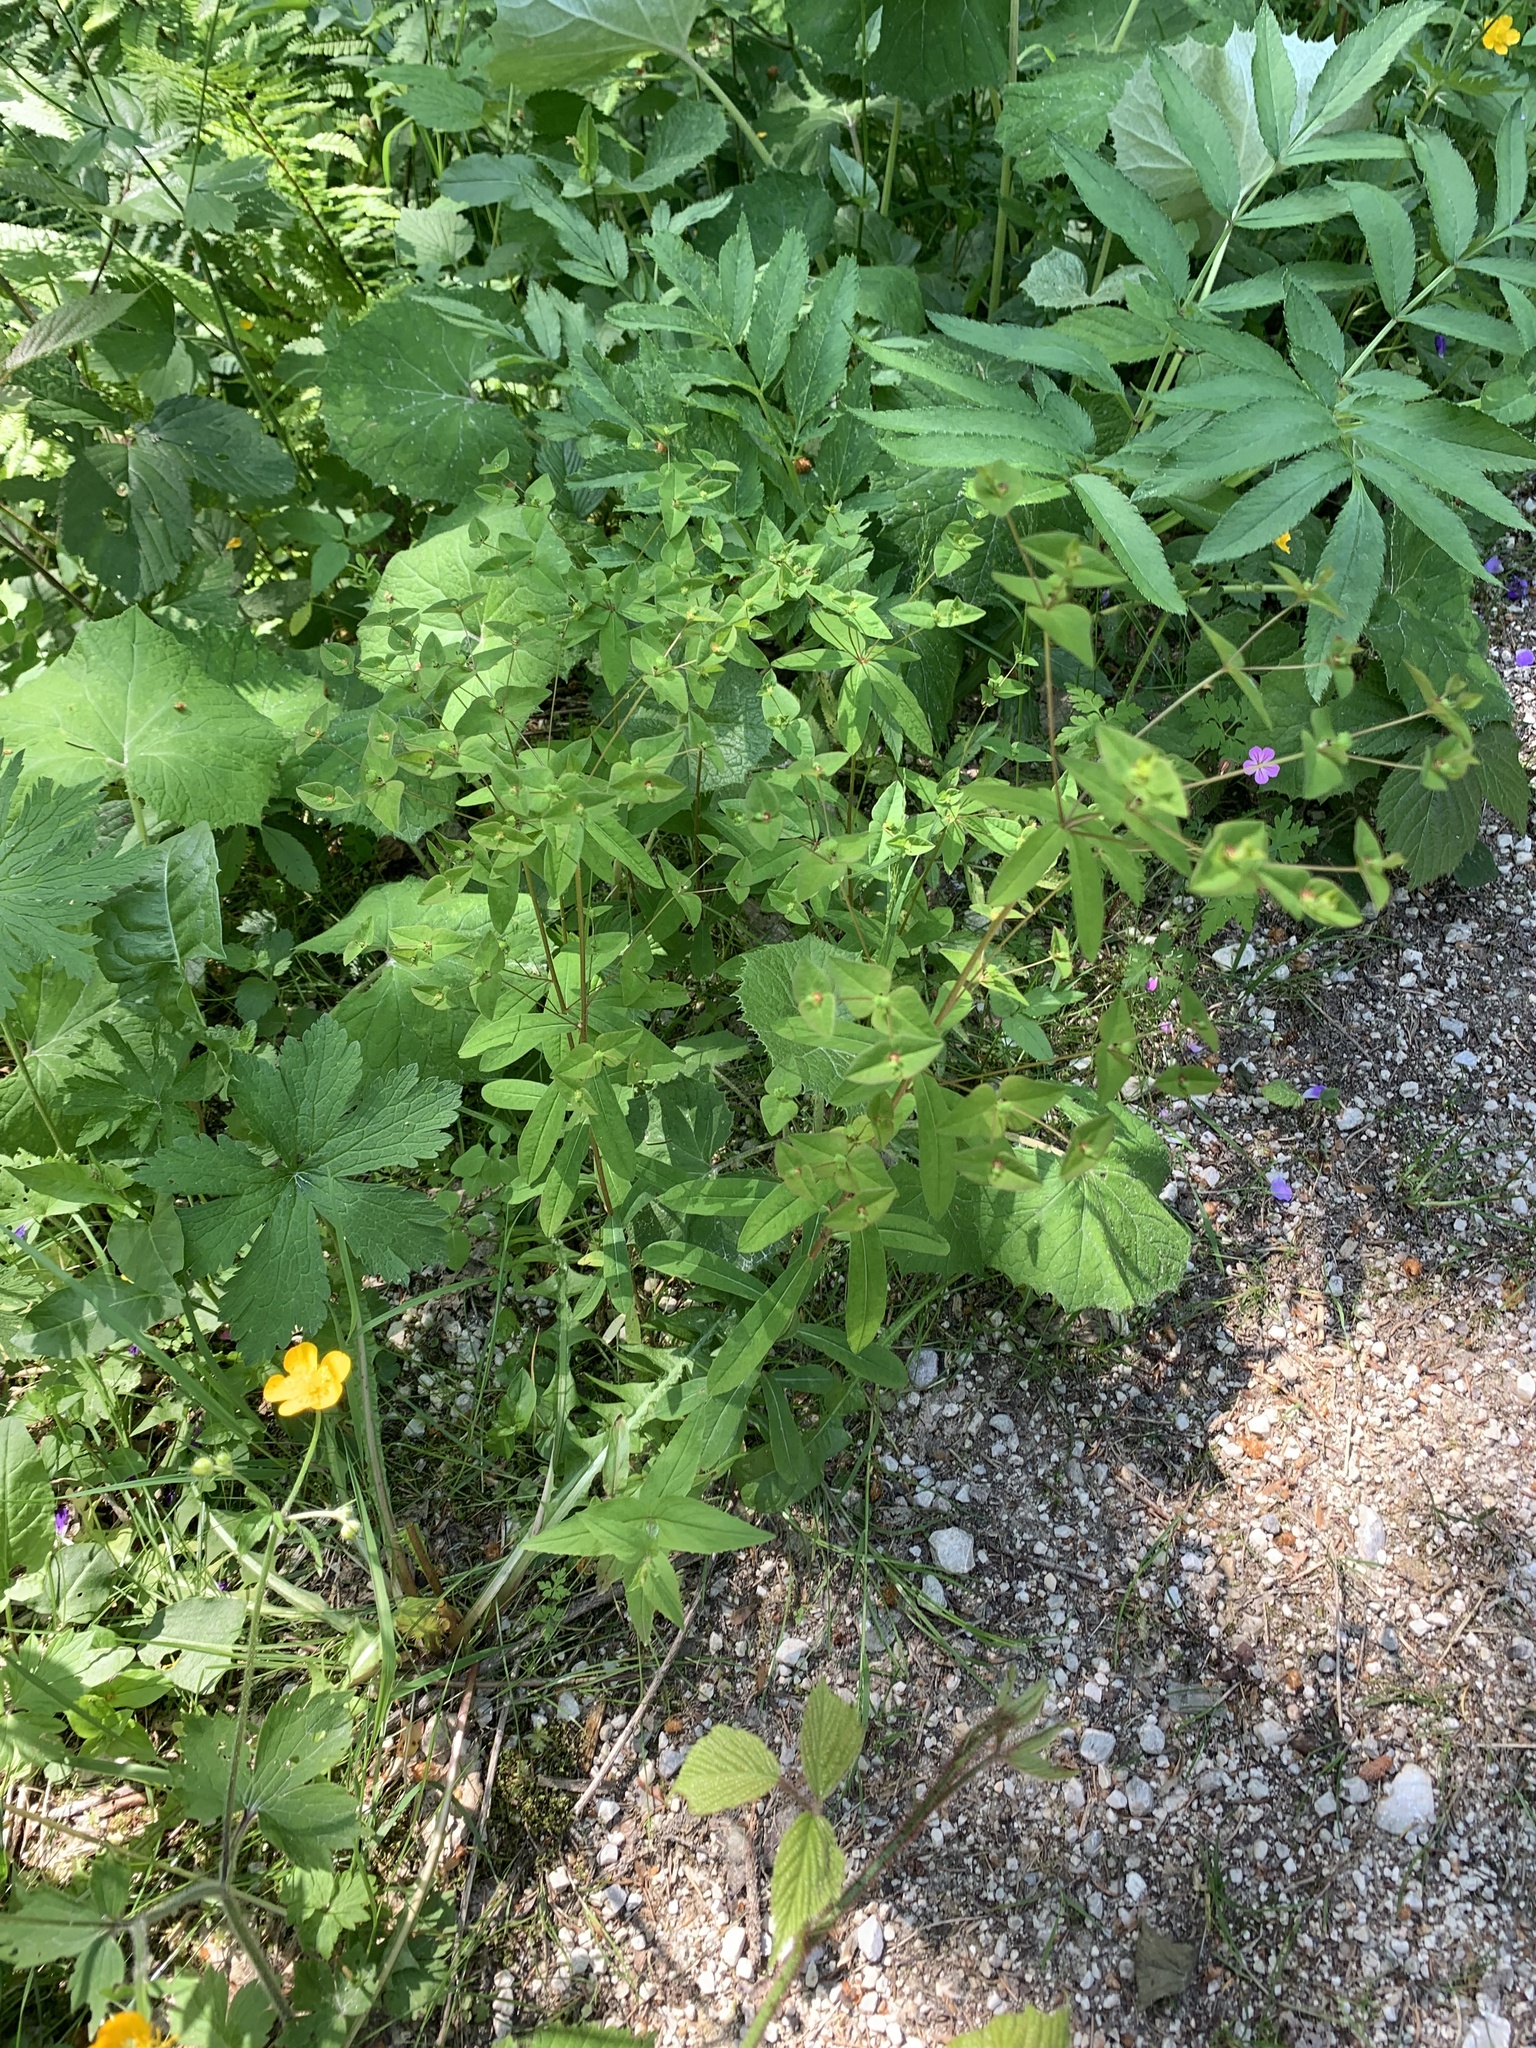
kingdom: Plantae
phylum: Tracheophyta
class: Magnoliopsida
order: Malpighiales
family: Euphorbiaceae
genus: Euphorbia
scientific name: Euphorbia dulcis
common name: Sweet spurge
